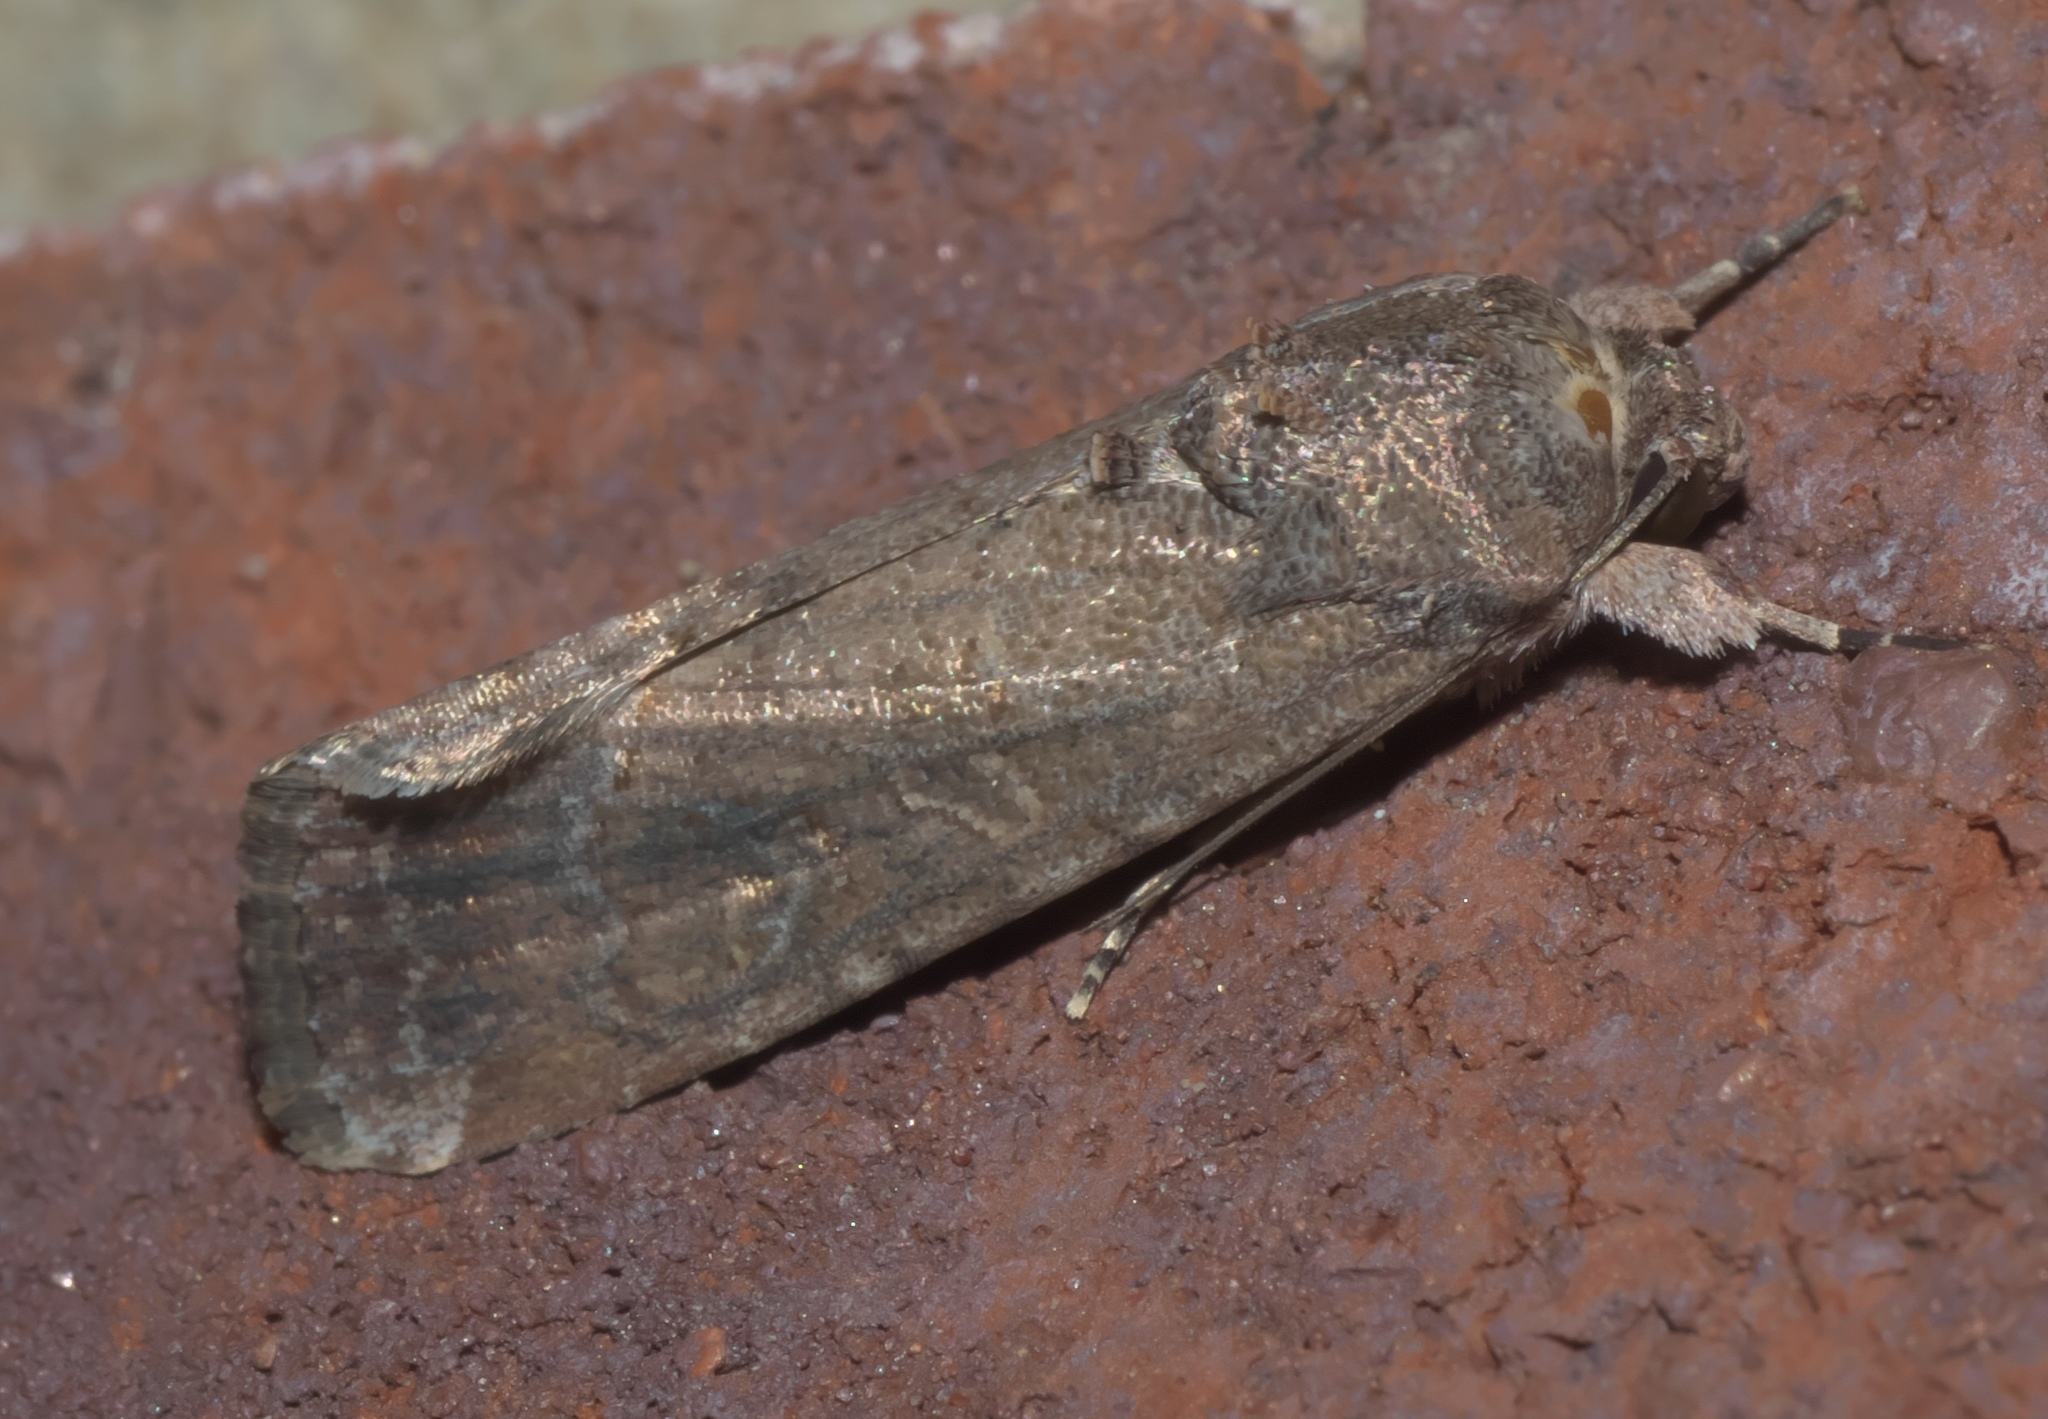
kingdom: Animalia
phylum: Arthropoda
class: Insecta
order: Lepidoptera
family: Noctuidae
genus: Spodoptera
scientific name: Spodoptera frugiperda
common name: Fall armyworm
